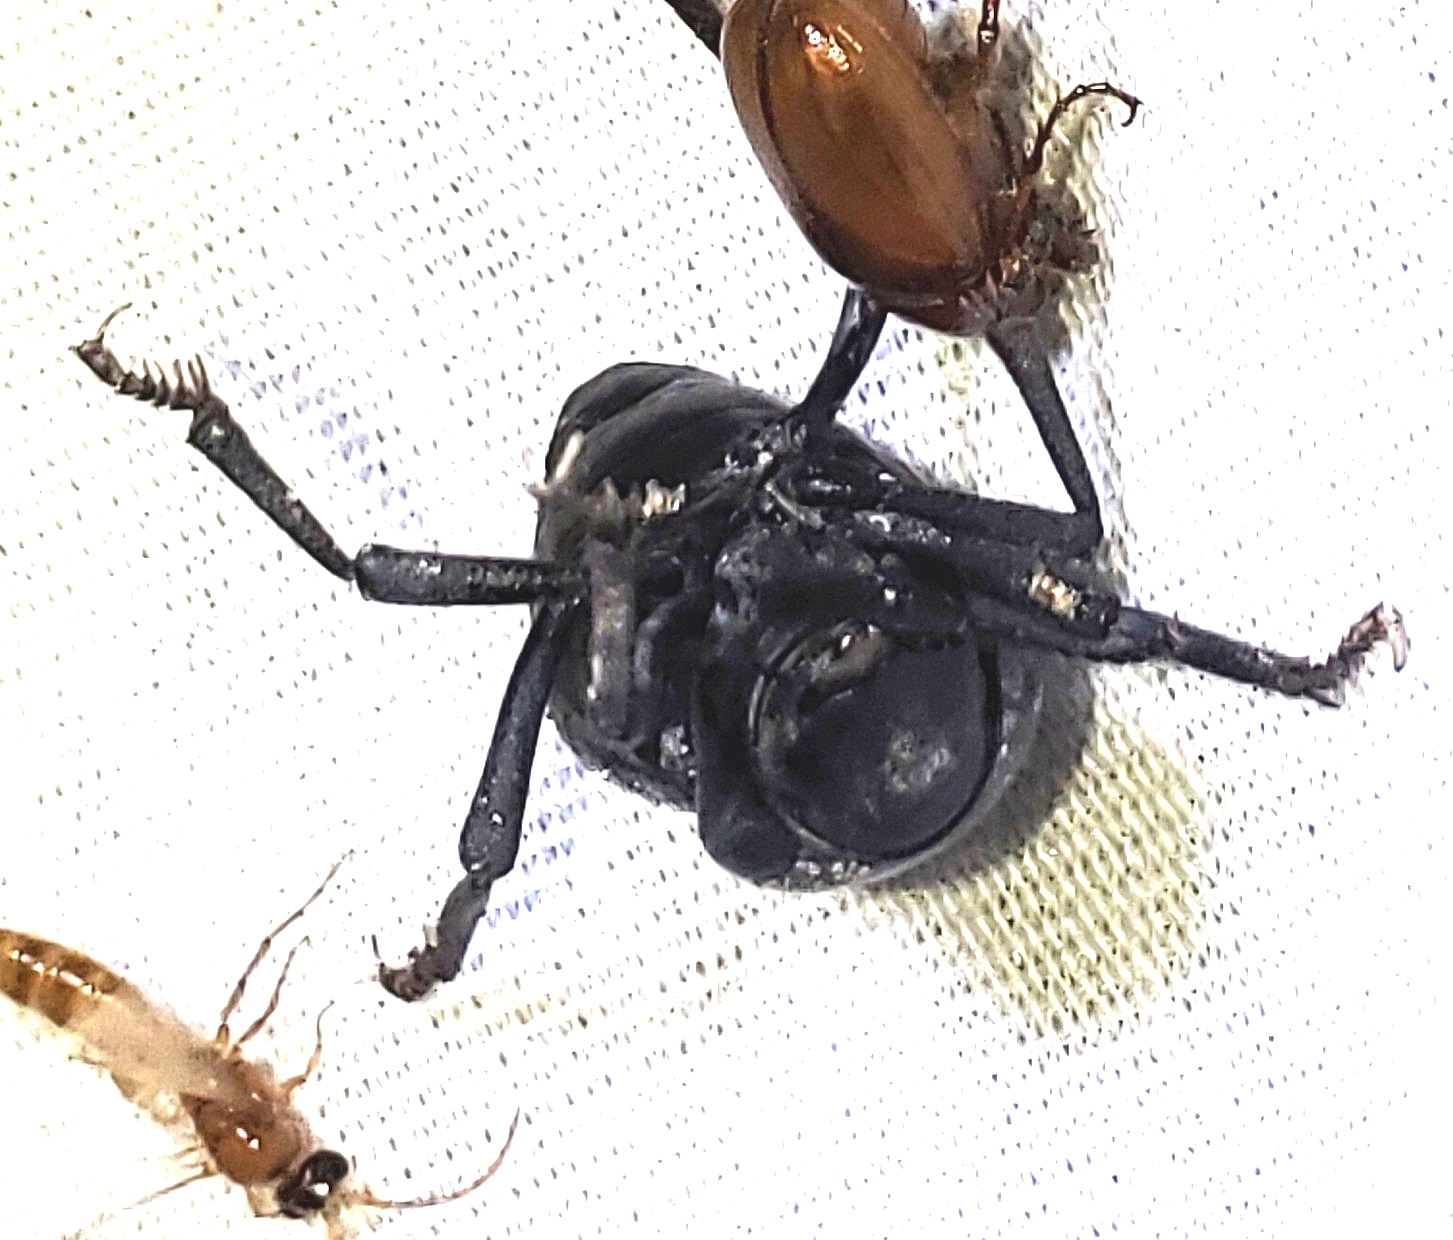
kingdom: Animalia
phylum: Arthropoda
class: Insecta
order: Coleoptera
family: Tenebrionidae
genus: Asbolus
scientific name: Asbolus laevis
